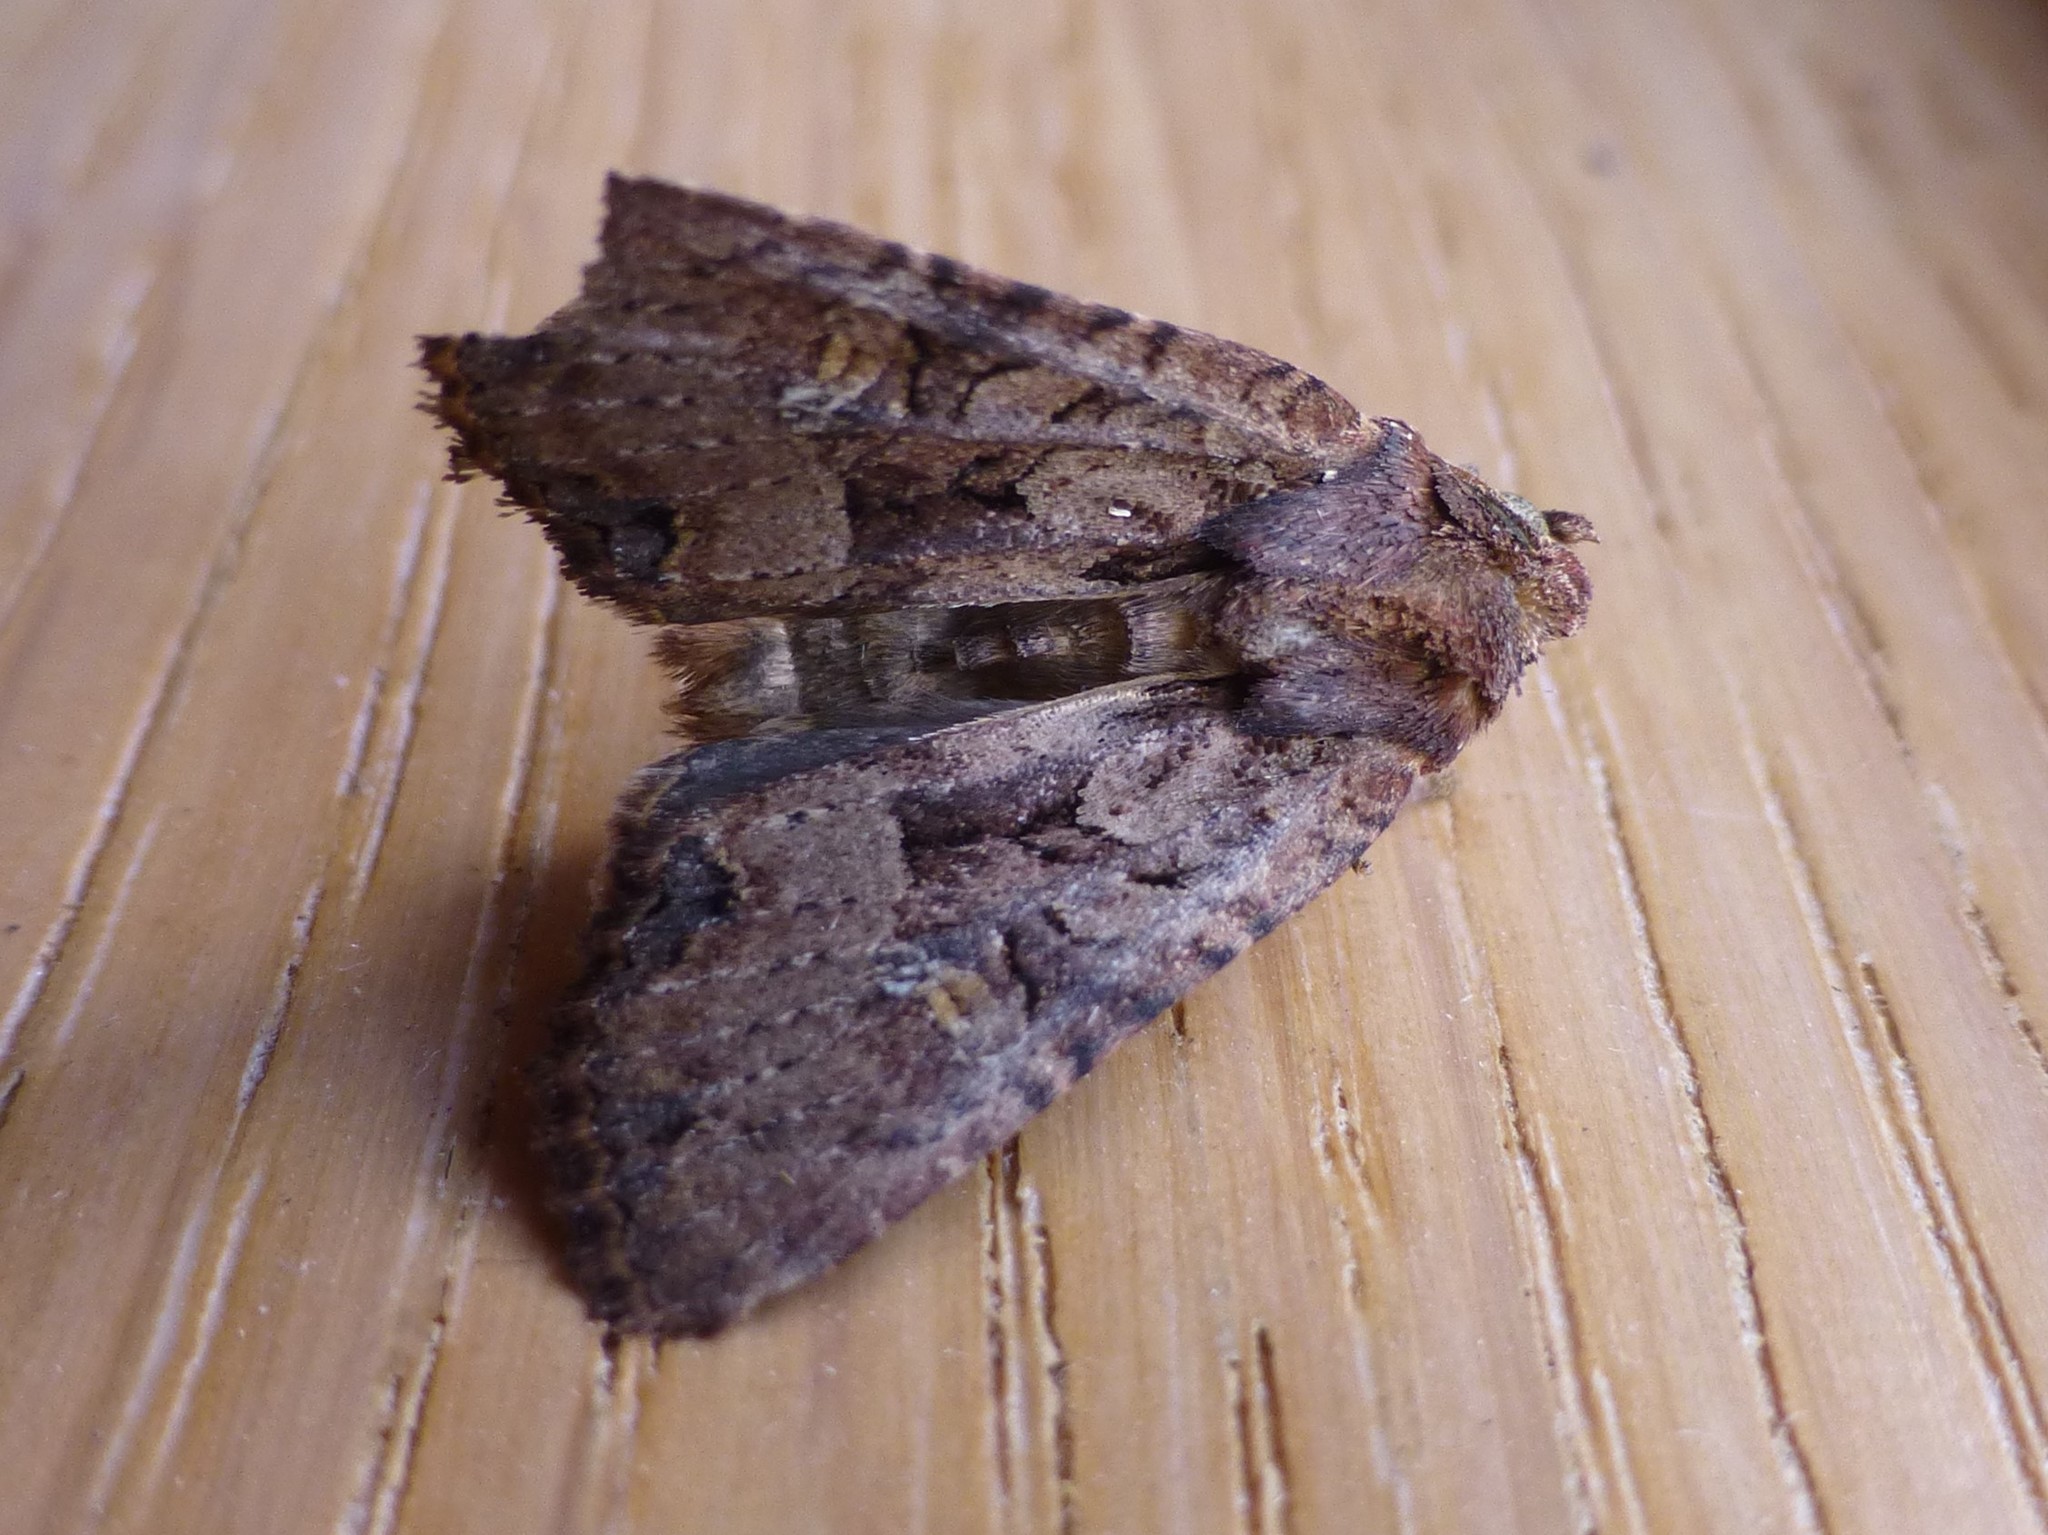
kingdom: Animalia
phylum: Arthropoda
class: Insecta
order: Lepidoptera
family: Noctuidae
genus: Mesapamea
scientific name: Mesapamea
